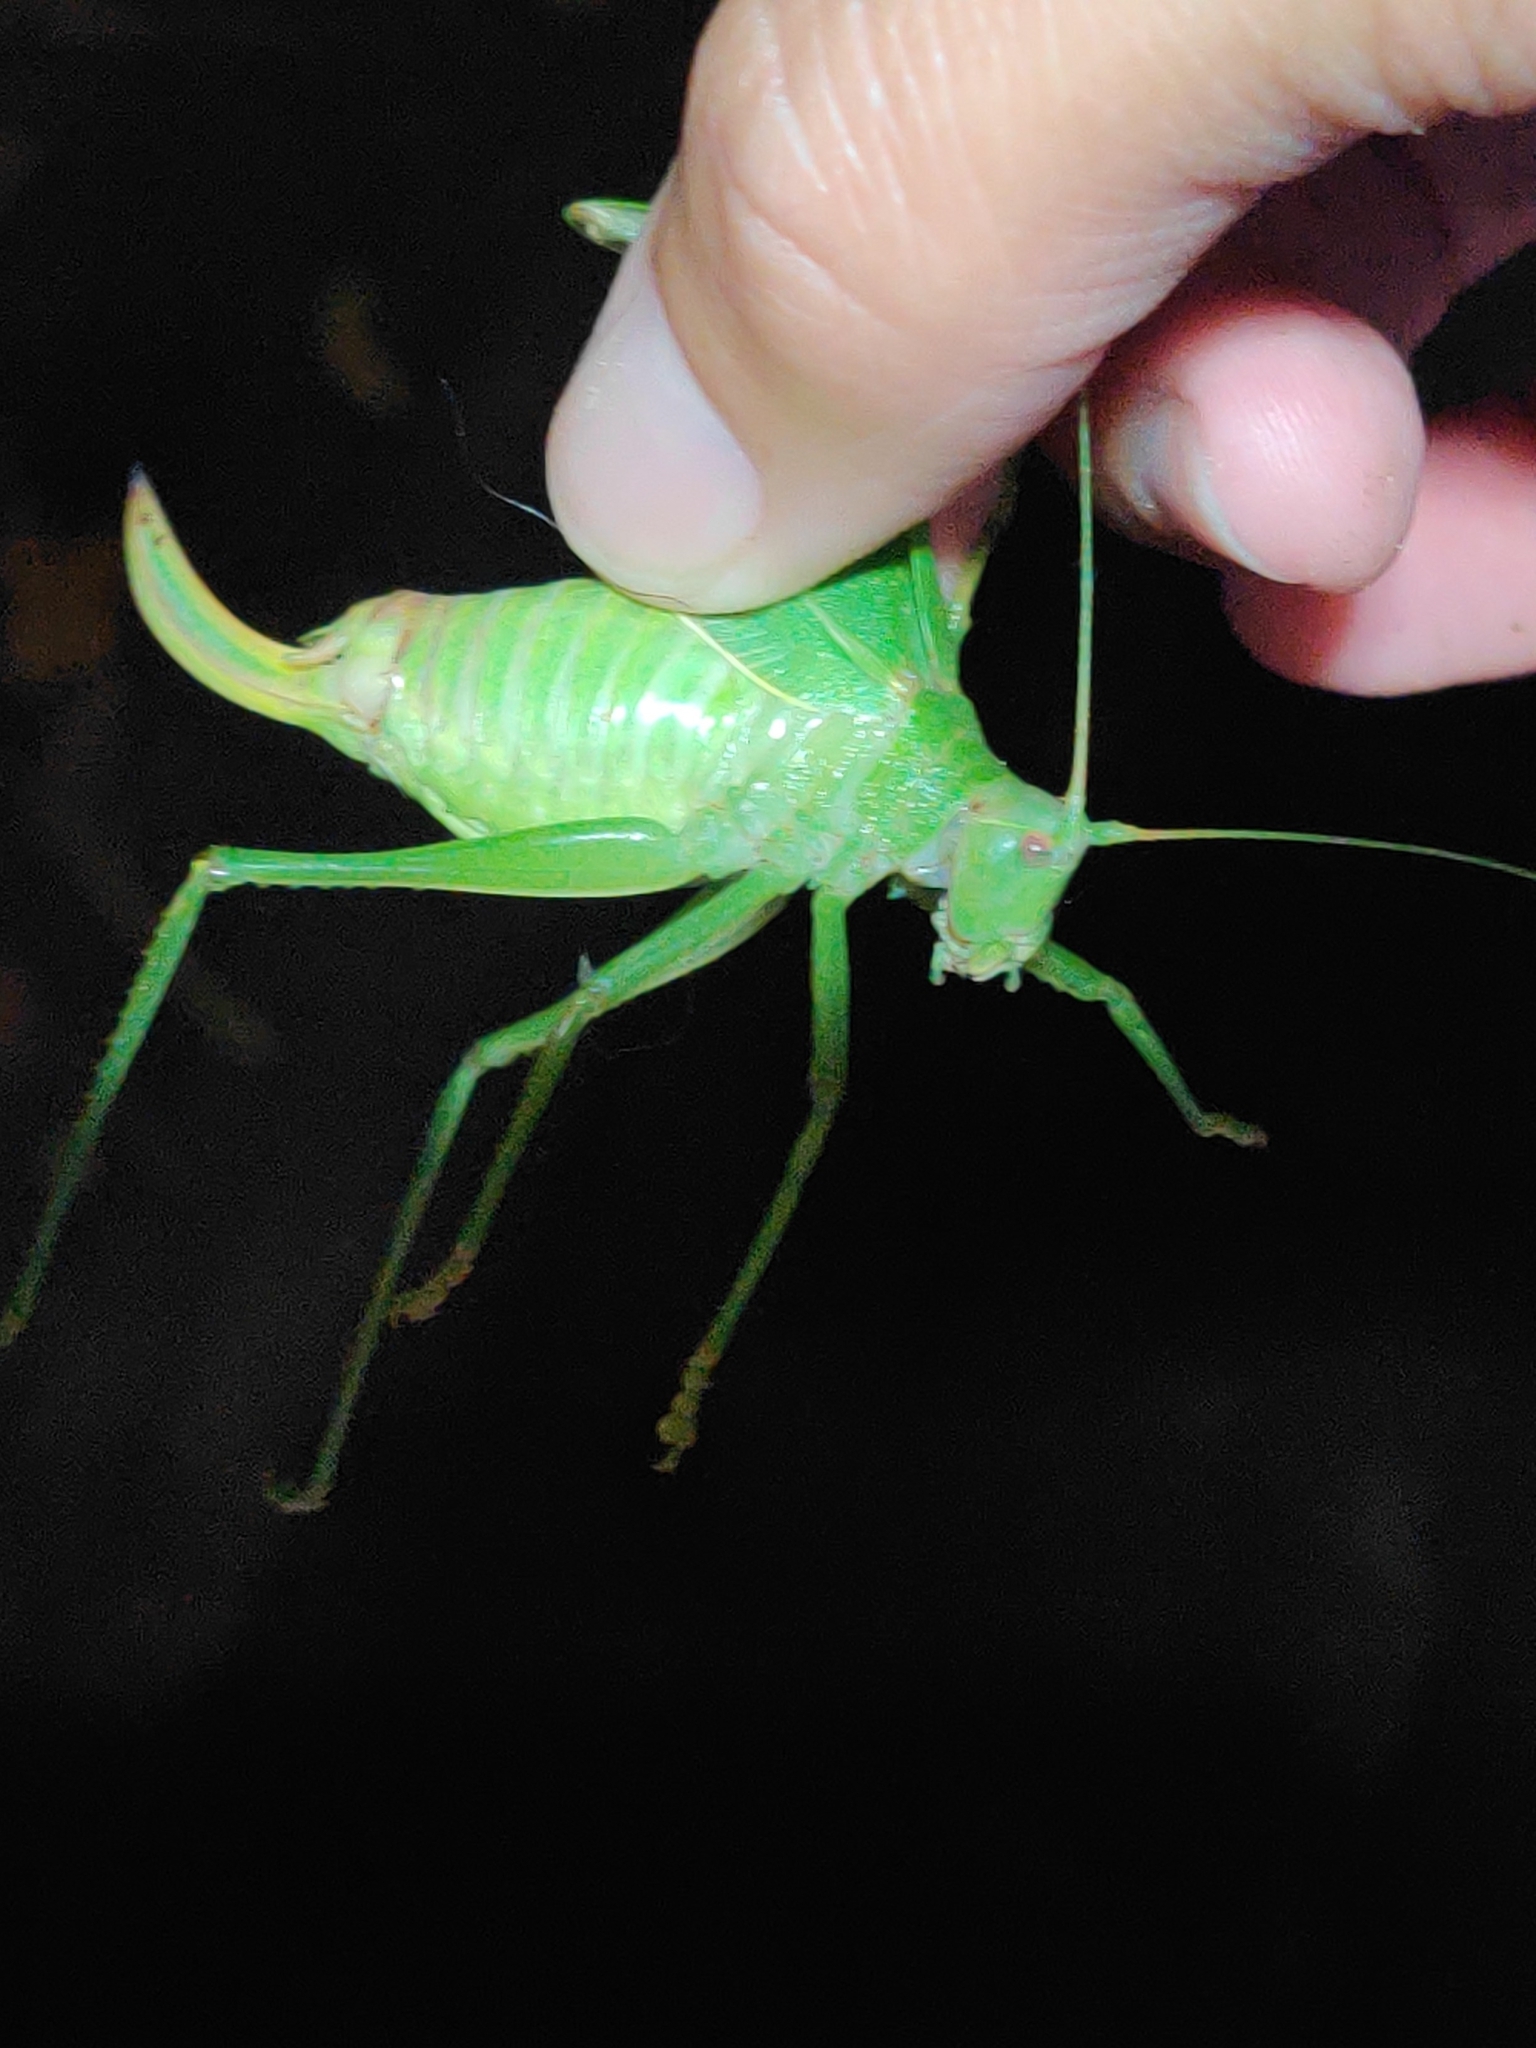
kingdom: Animalia
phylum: Arthropoda
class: Insecta
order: Orthoptera
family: Tettigoniidae
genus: Pterophylla
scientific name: Pterophylla camellifolia
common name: Common true katydid
